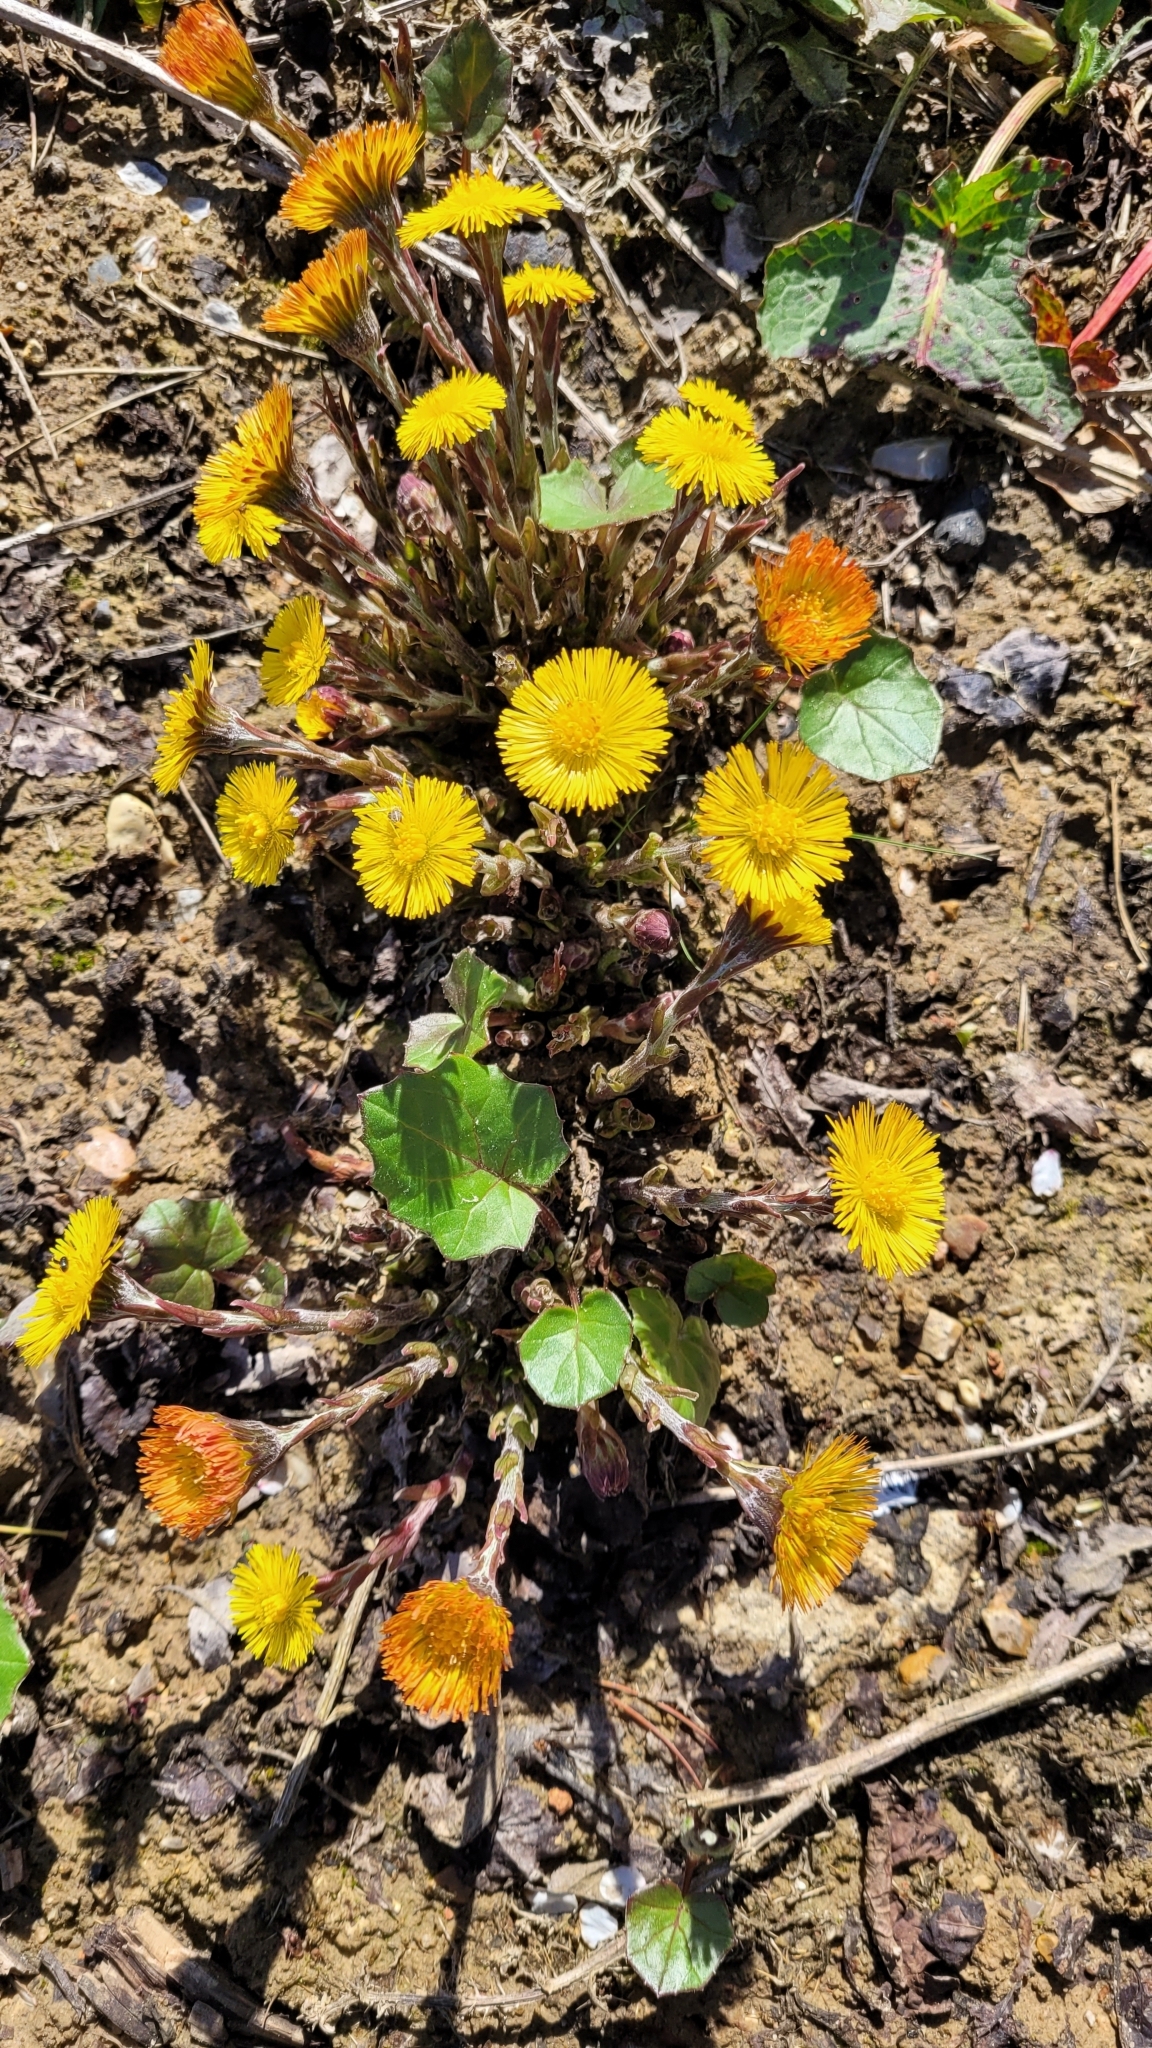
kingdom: Plantae
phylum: Tracheophyta
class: Magnoliopsida
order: Asterales
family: Asteraceae
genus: Tussilago
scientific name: Tussilago farfara
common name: Coltsfoot
